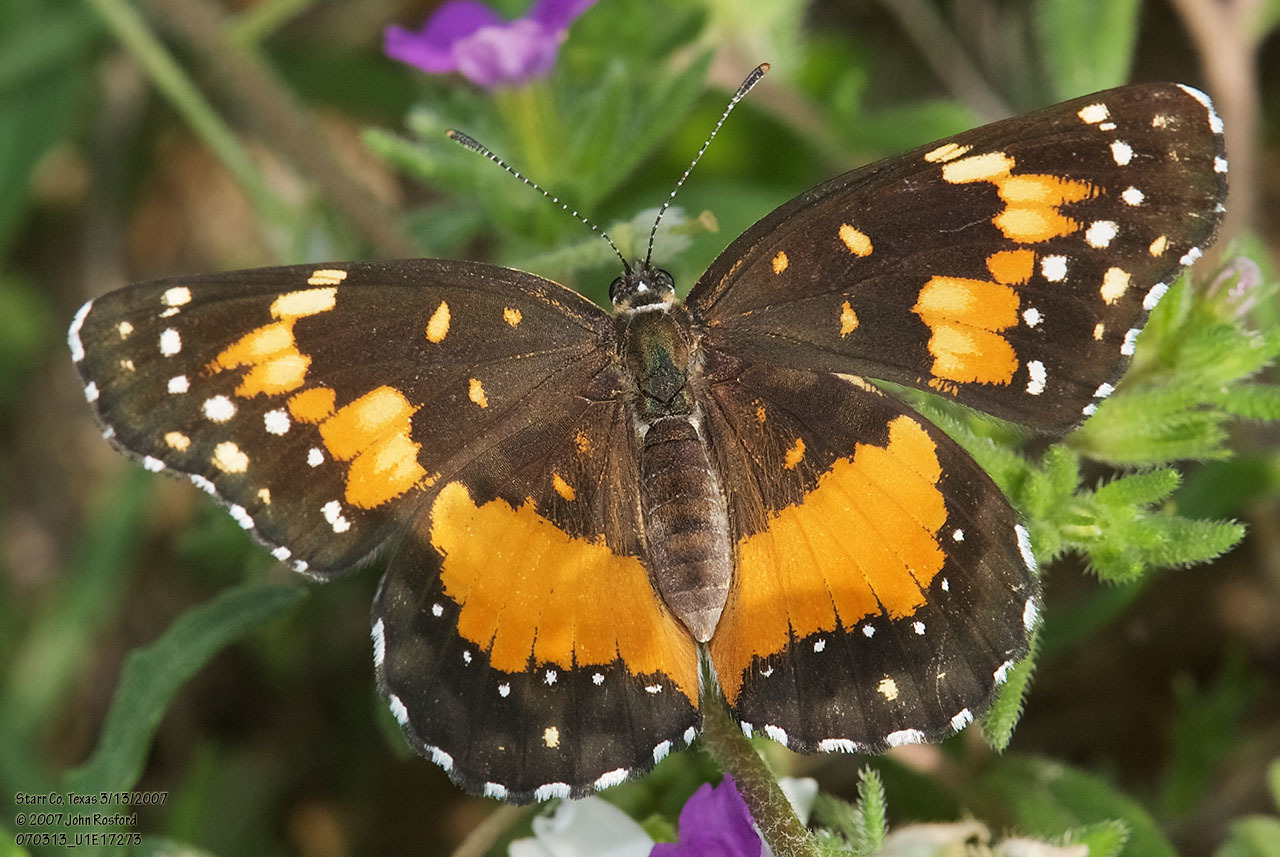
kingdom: Animalia
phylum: Arthropoda
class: Insecta
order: Lepidoptera
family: Nymphalidae
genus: Chlosyne
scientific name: Chlosyne lacinia
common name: Bordered patch
